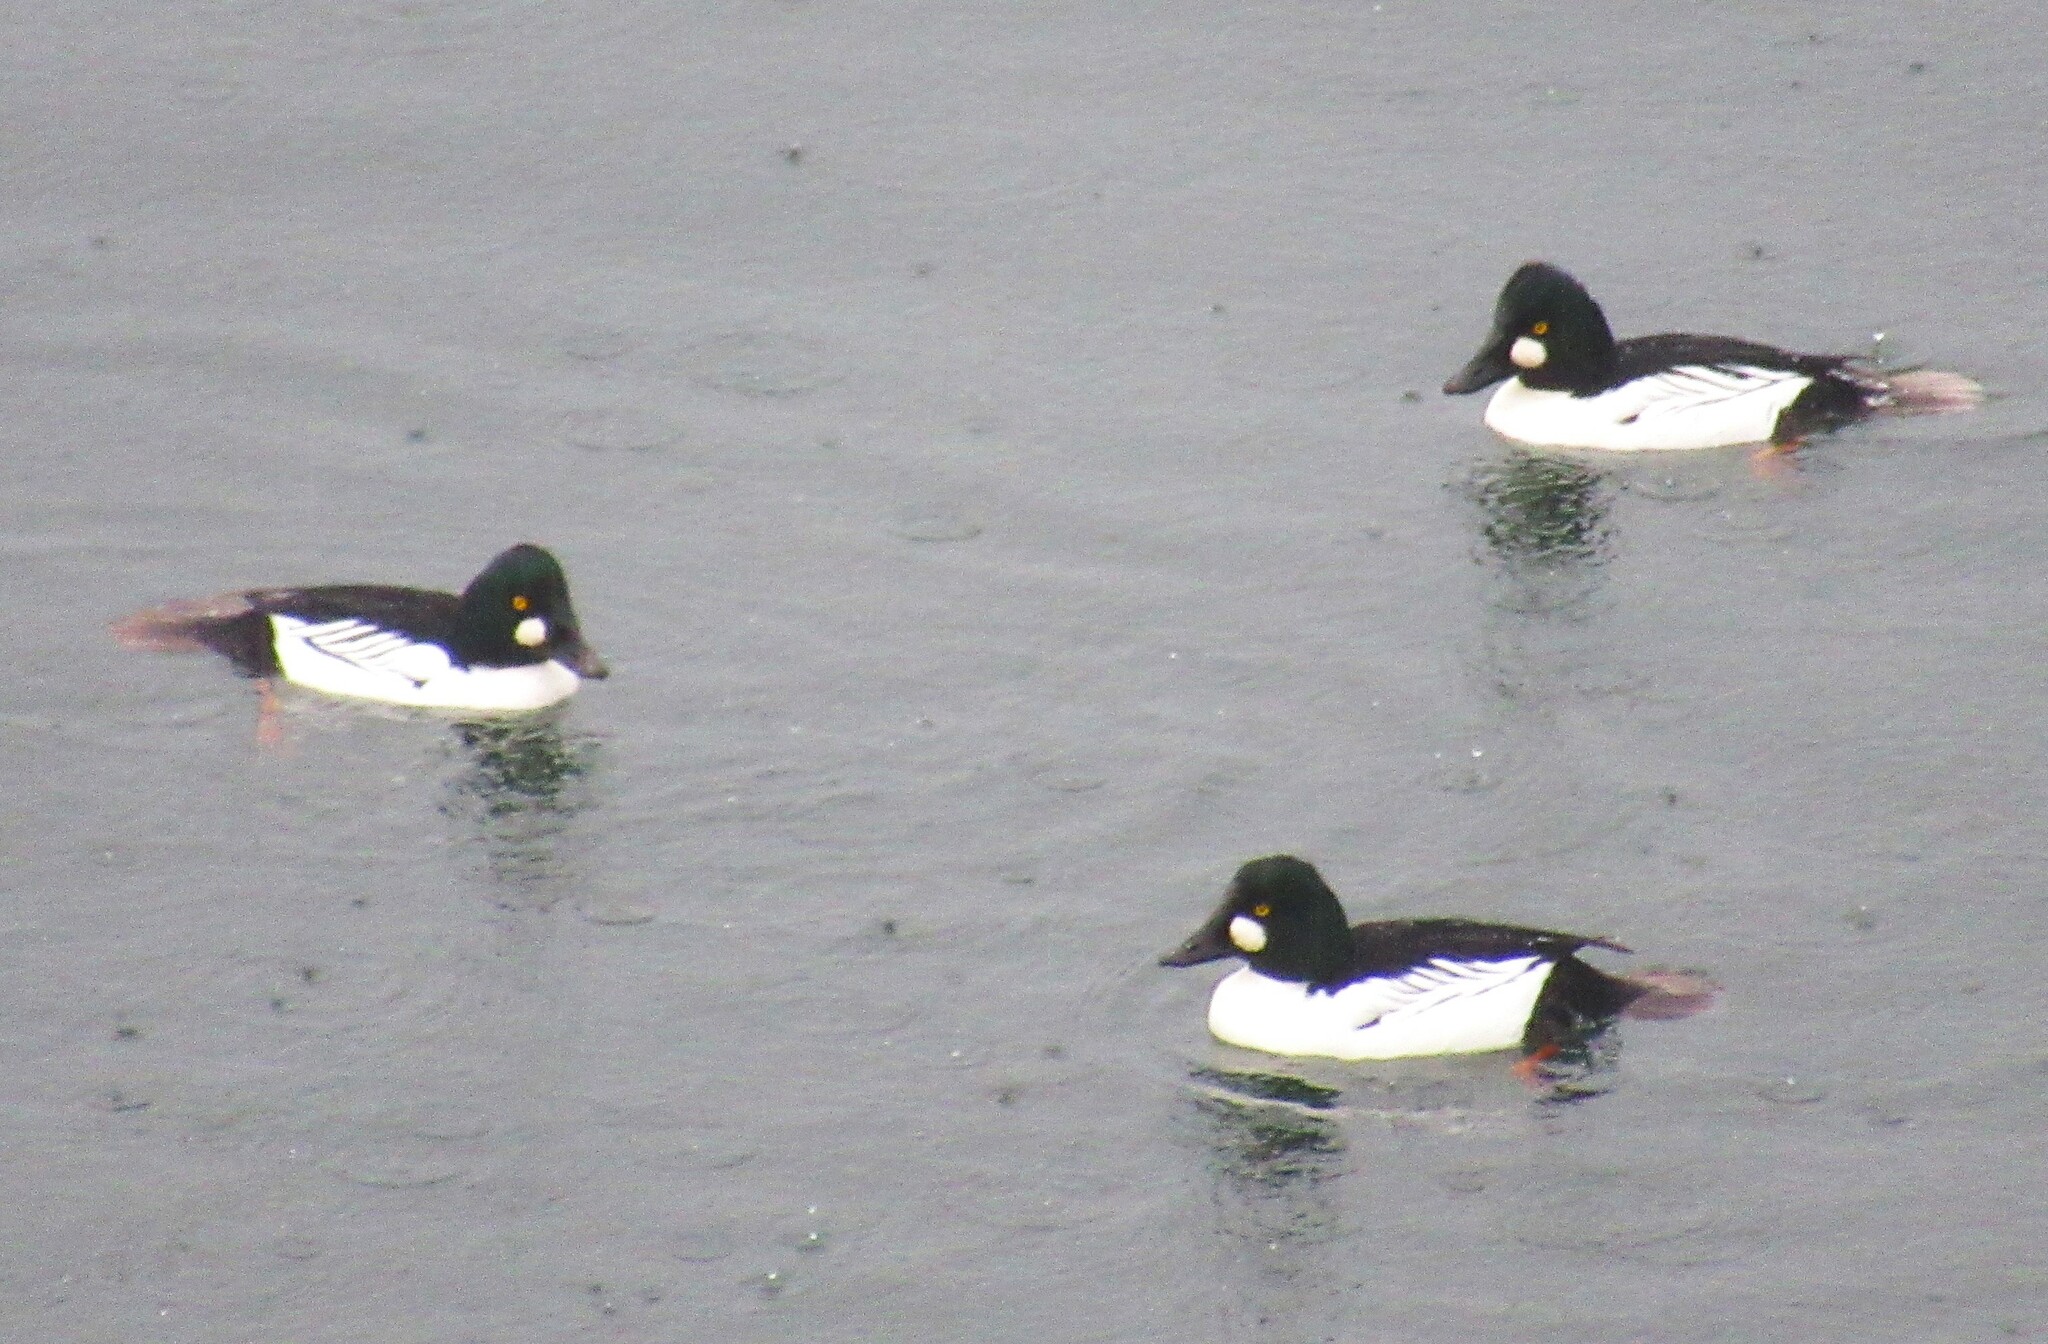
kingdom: Animalia
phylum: Chordata
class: Aves
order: Anseriformes
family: Anatidae
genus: Bucephala
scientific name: Bucephala clangula
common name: Common goldeneye
